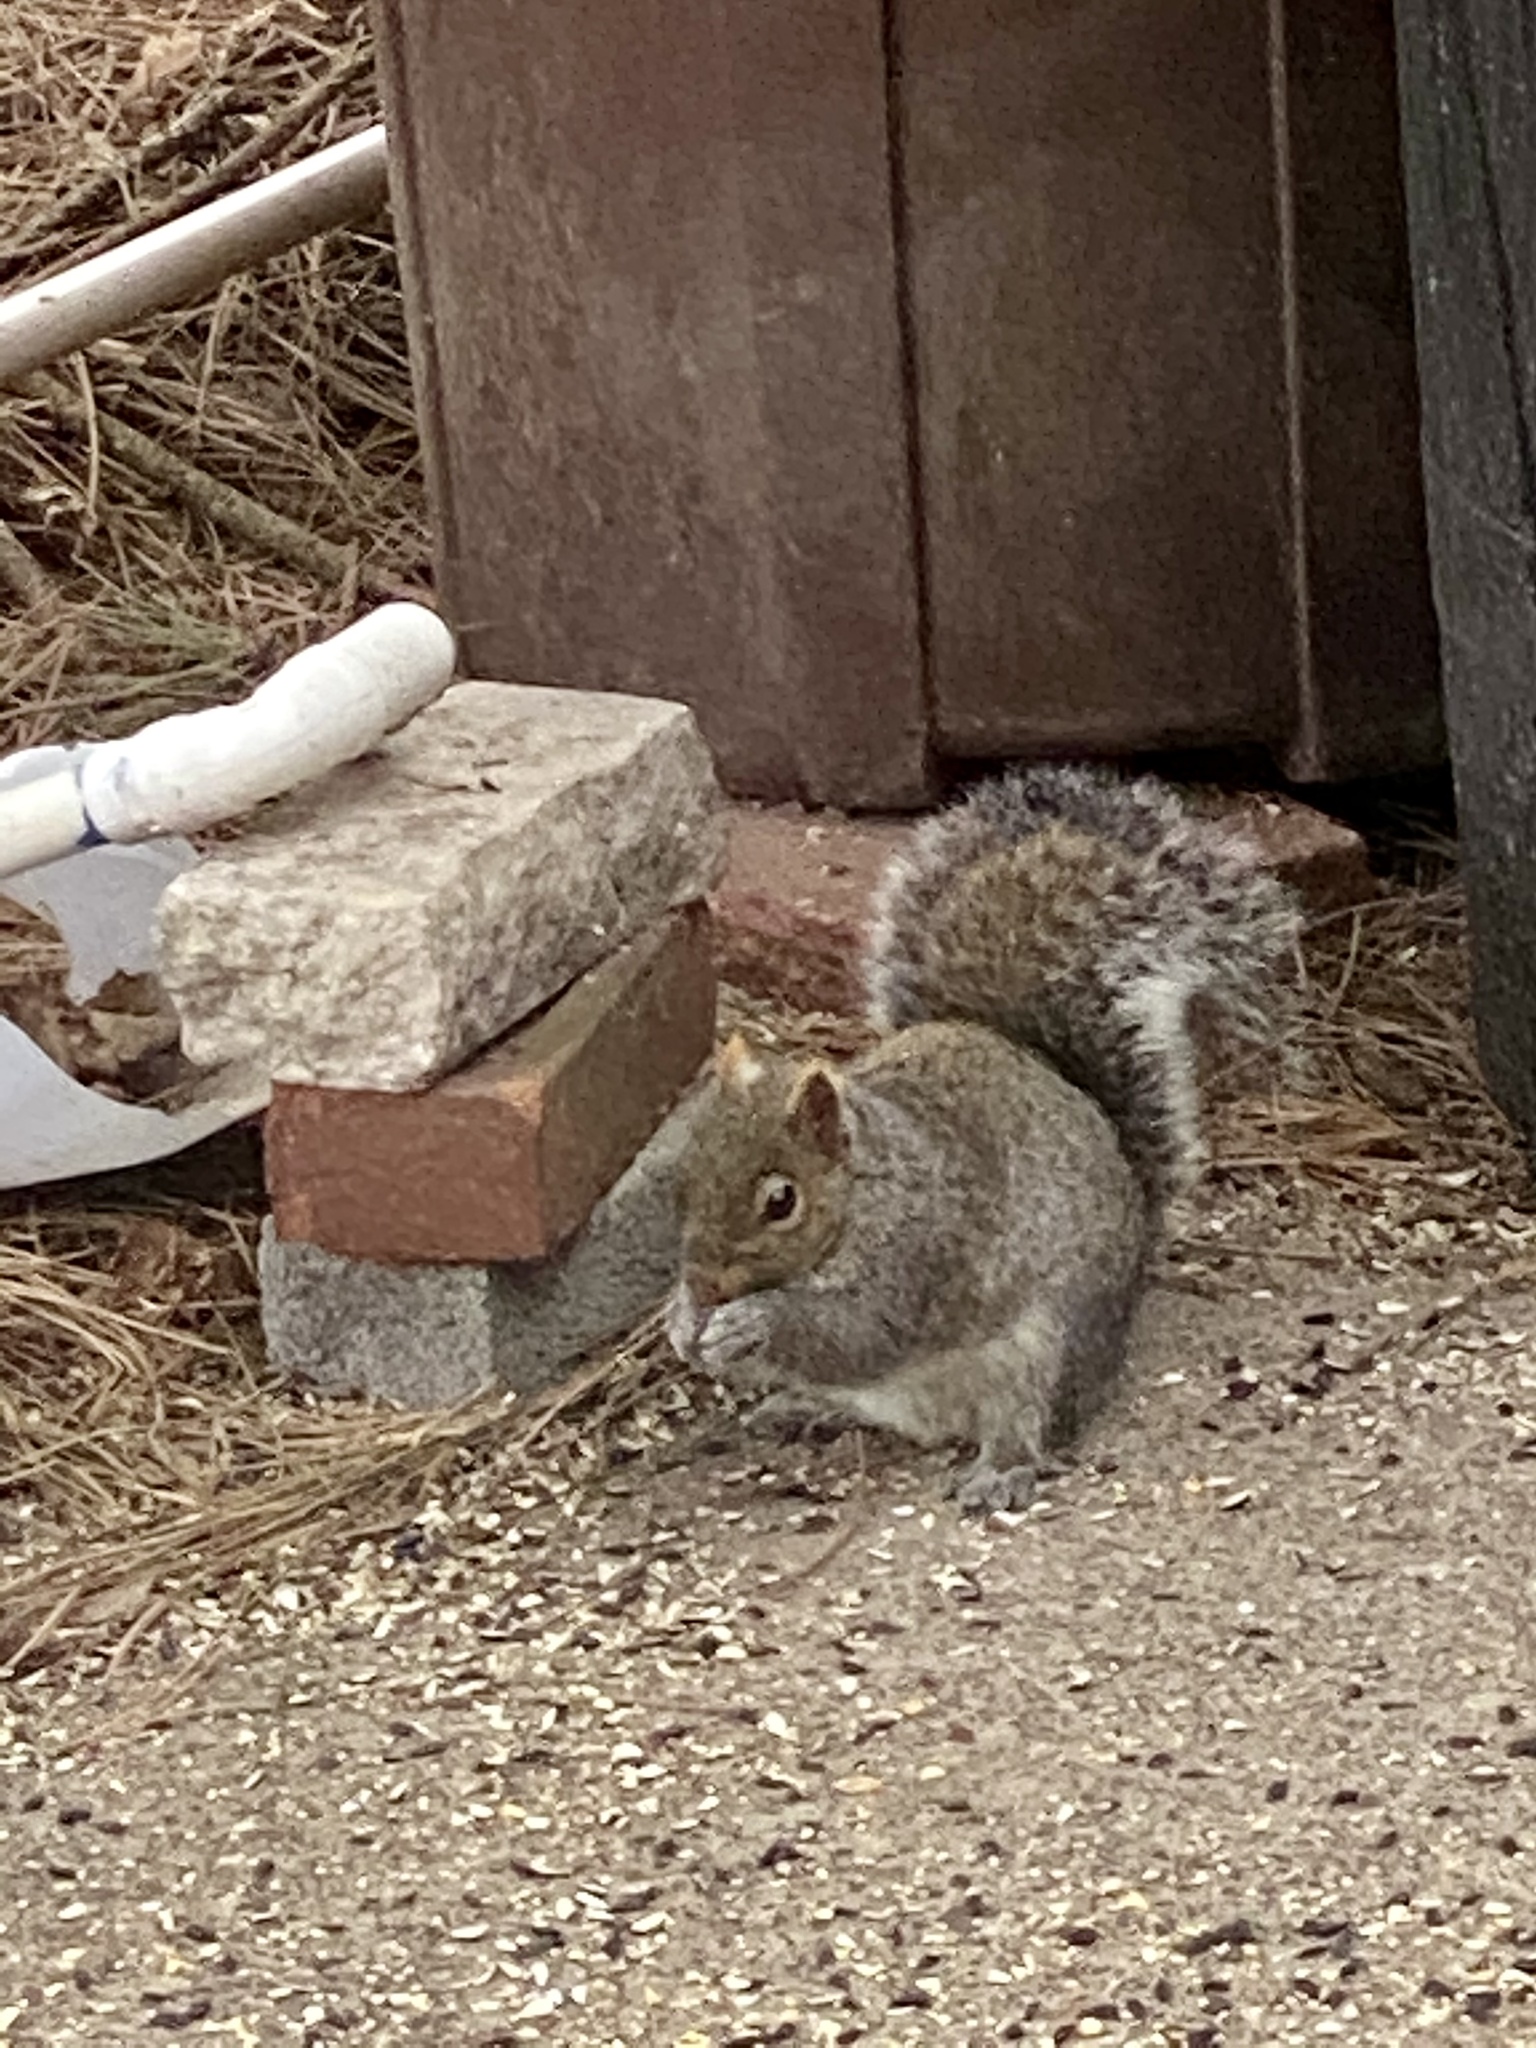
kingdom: Animalia
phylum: Chordata
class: Mammalia
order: Rodentia
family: Sciuridae
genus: Sciurus
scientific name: Sciurus carolinensis
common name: Eastern gray squirrel
